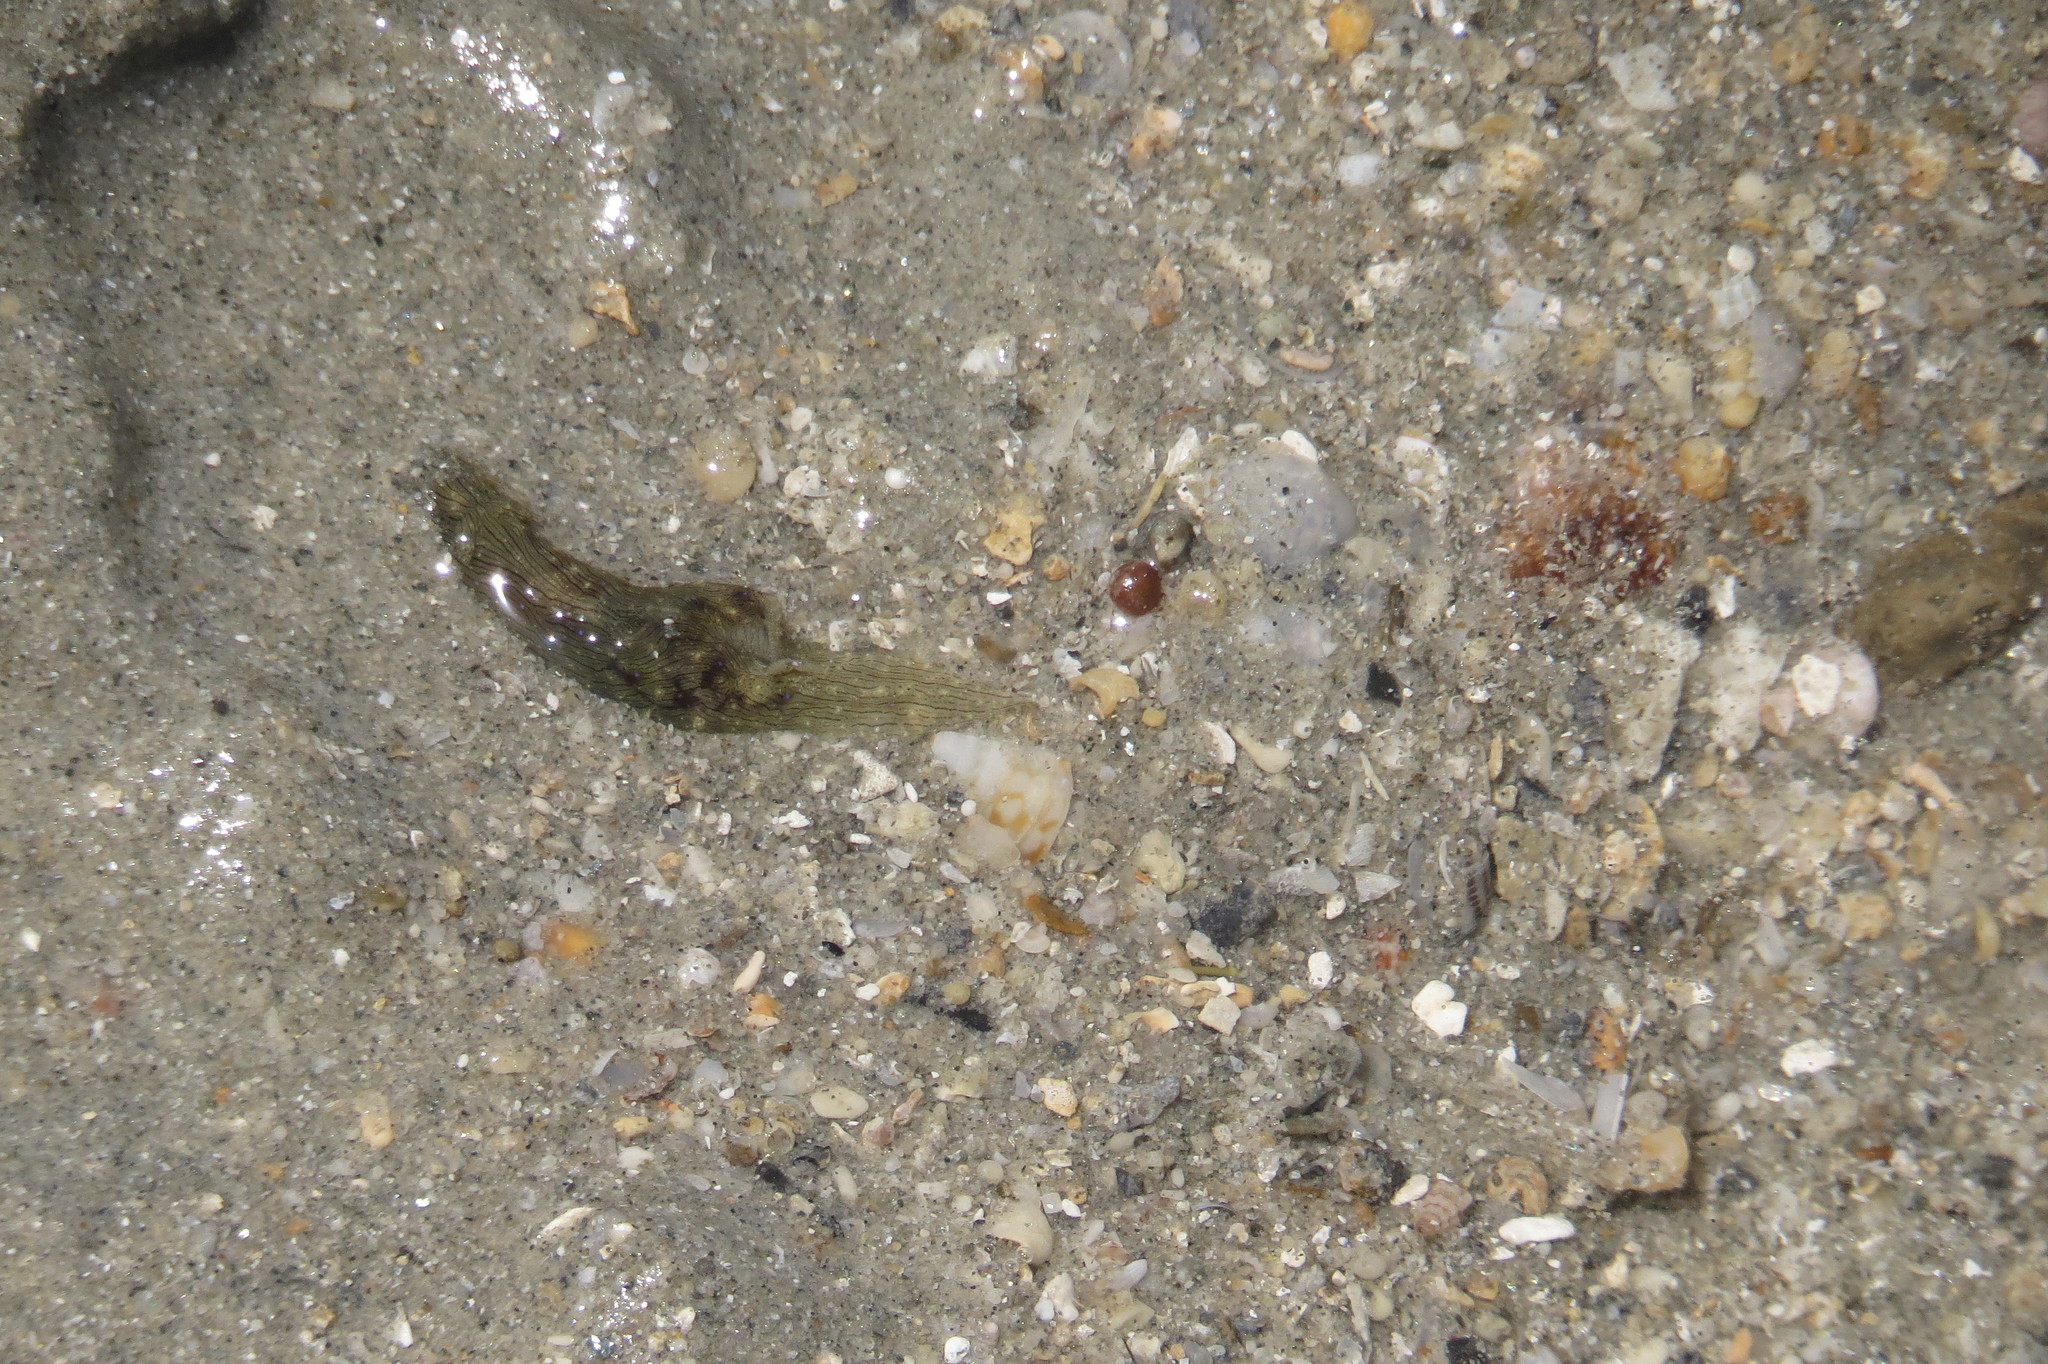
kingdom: Animalia
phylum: Mollusca
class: Gastropoda
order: Aplysiida
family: Aplysiidae
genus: Stylocheilus
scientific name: Stylocheilus striatus
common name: Striated seahare
